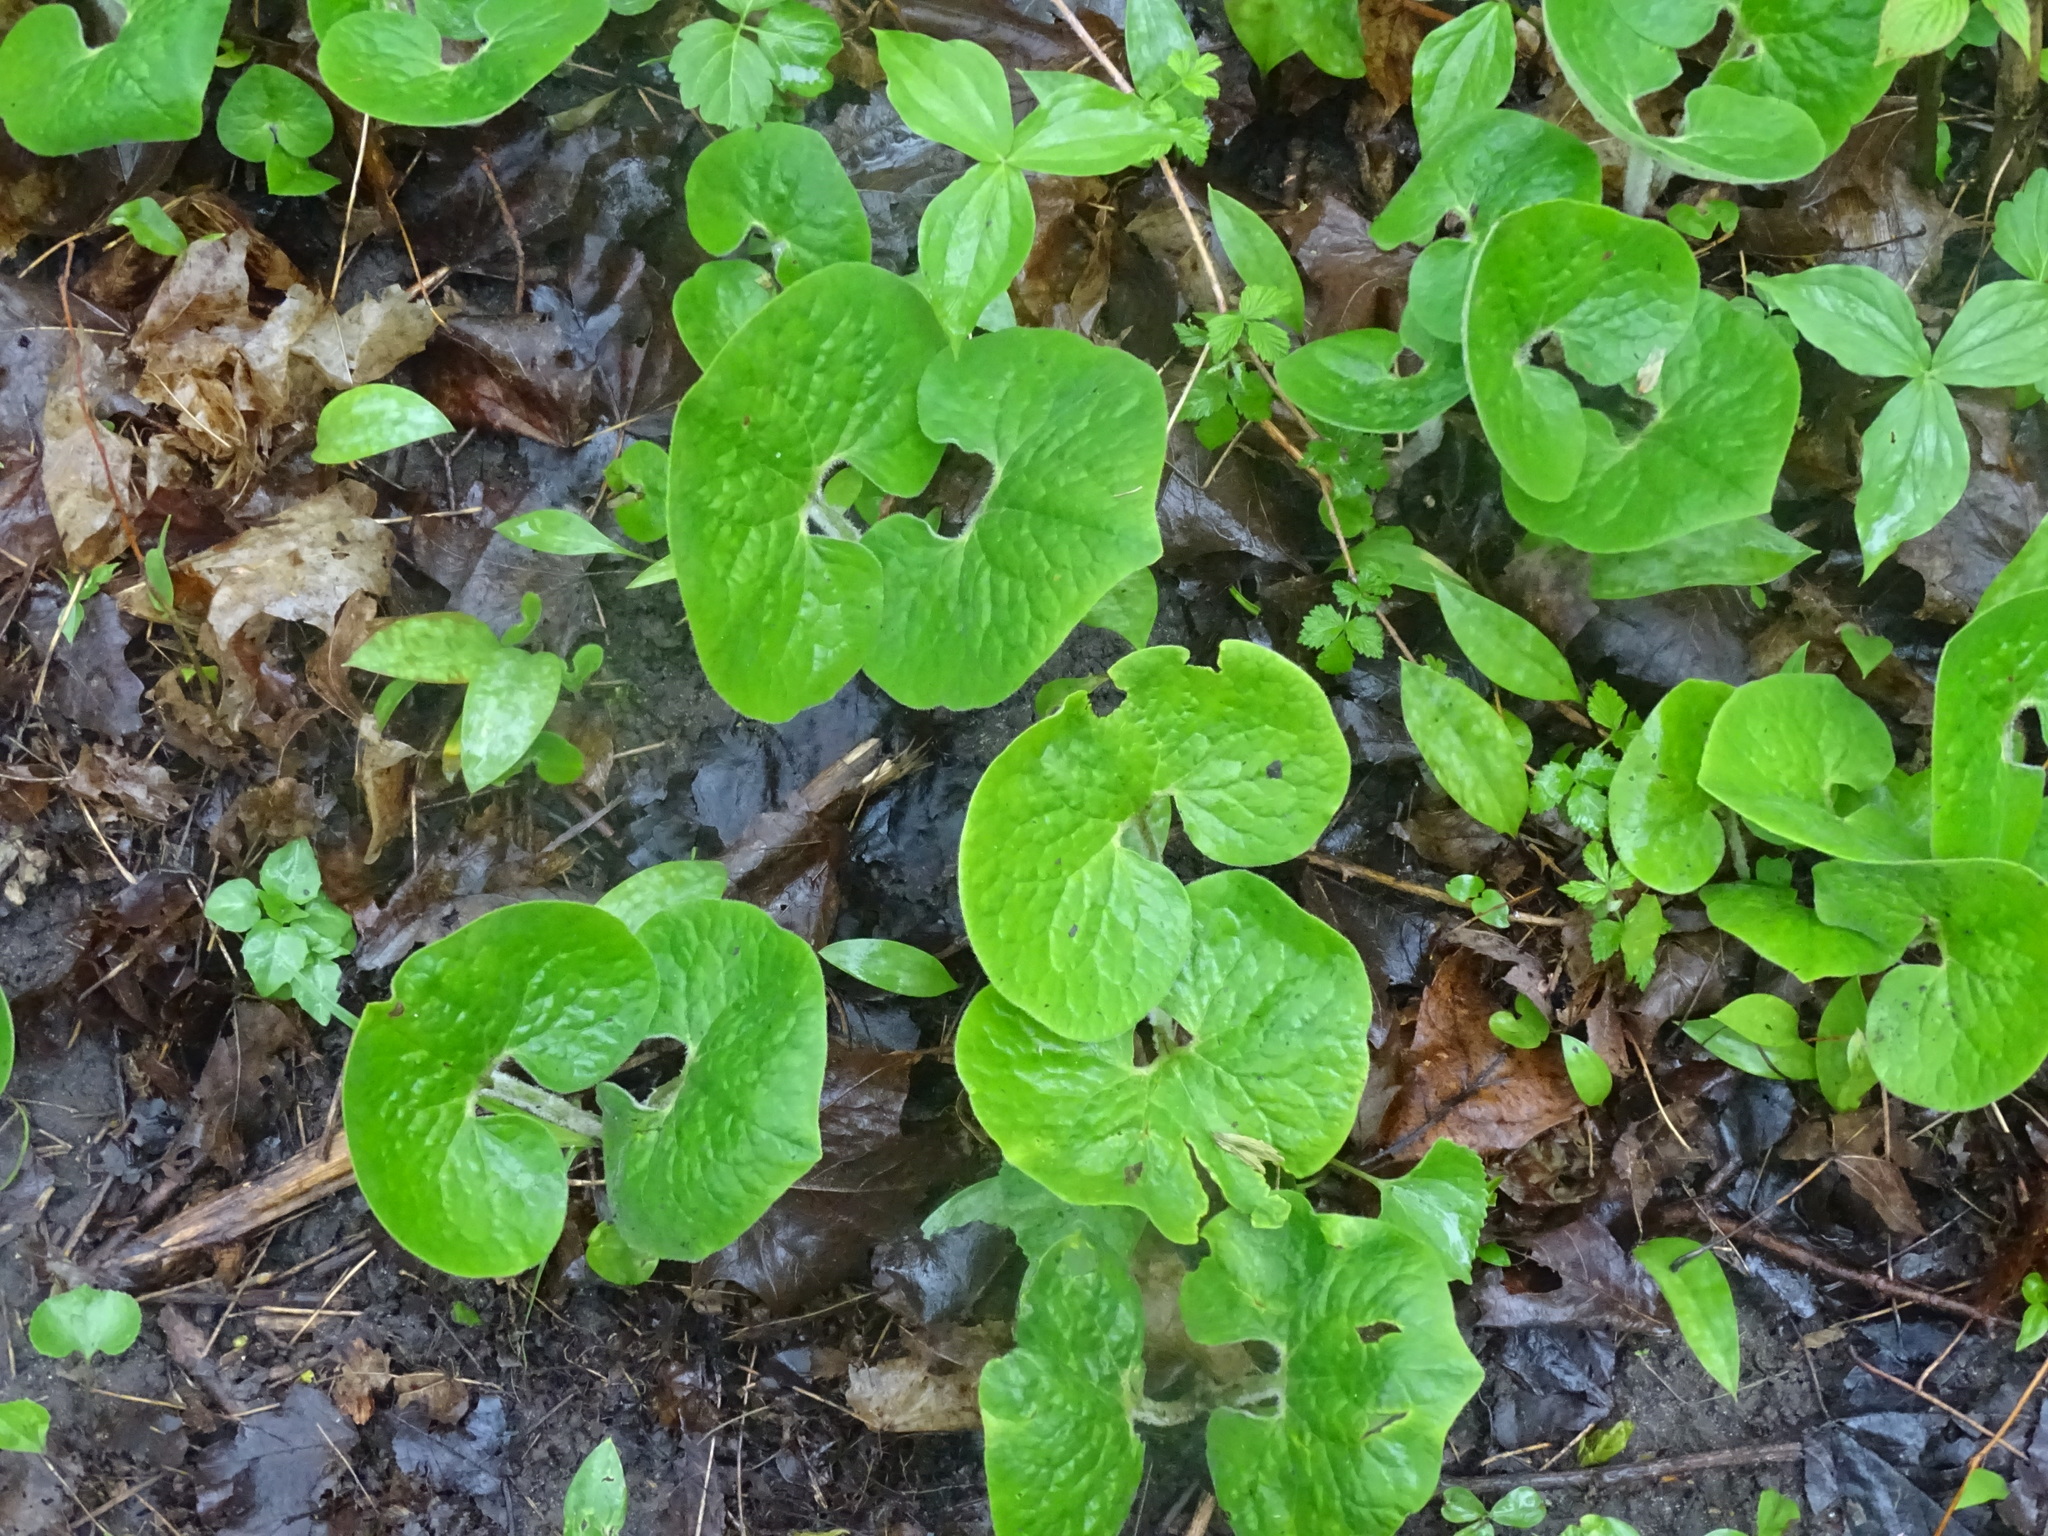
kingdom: Plantae
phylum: Tracheophyta
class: Magnoliopsida
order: Piperales
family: Aristolochiaceae
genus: Asarum
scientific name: Asarum canadense
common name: Wild ginger
